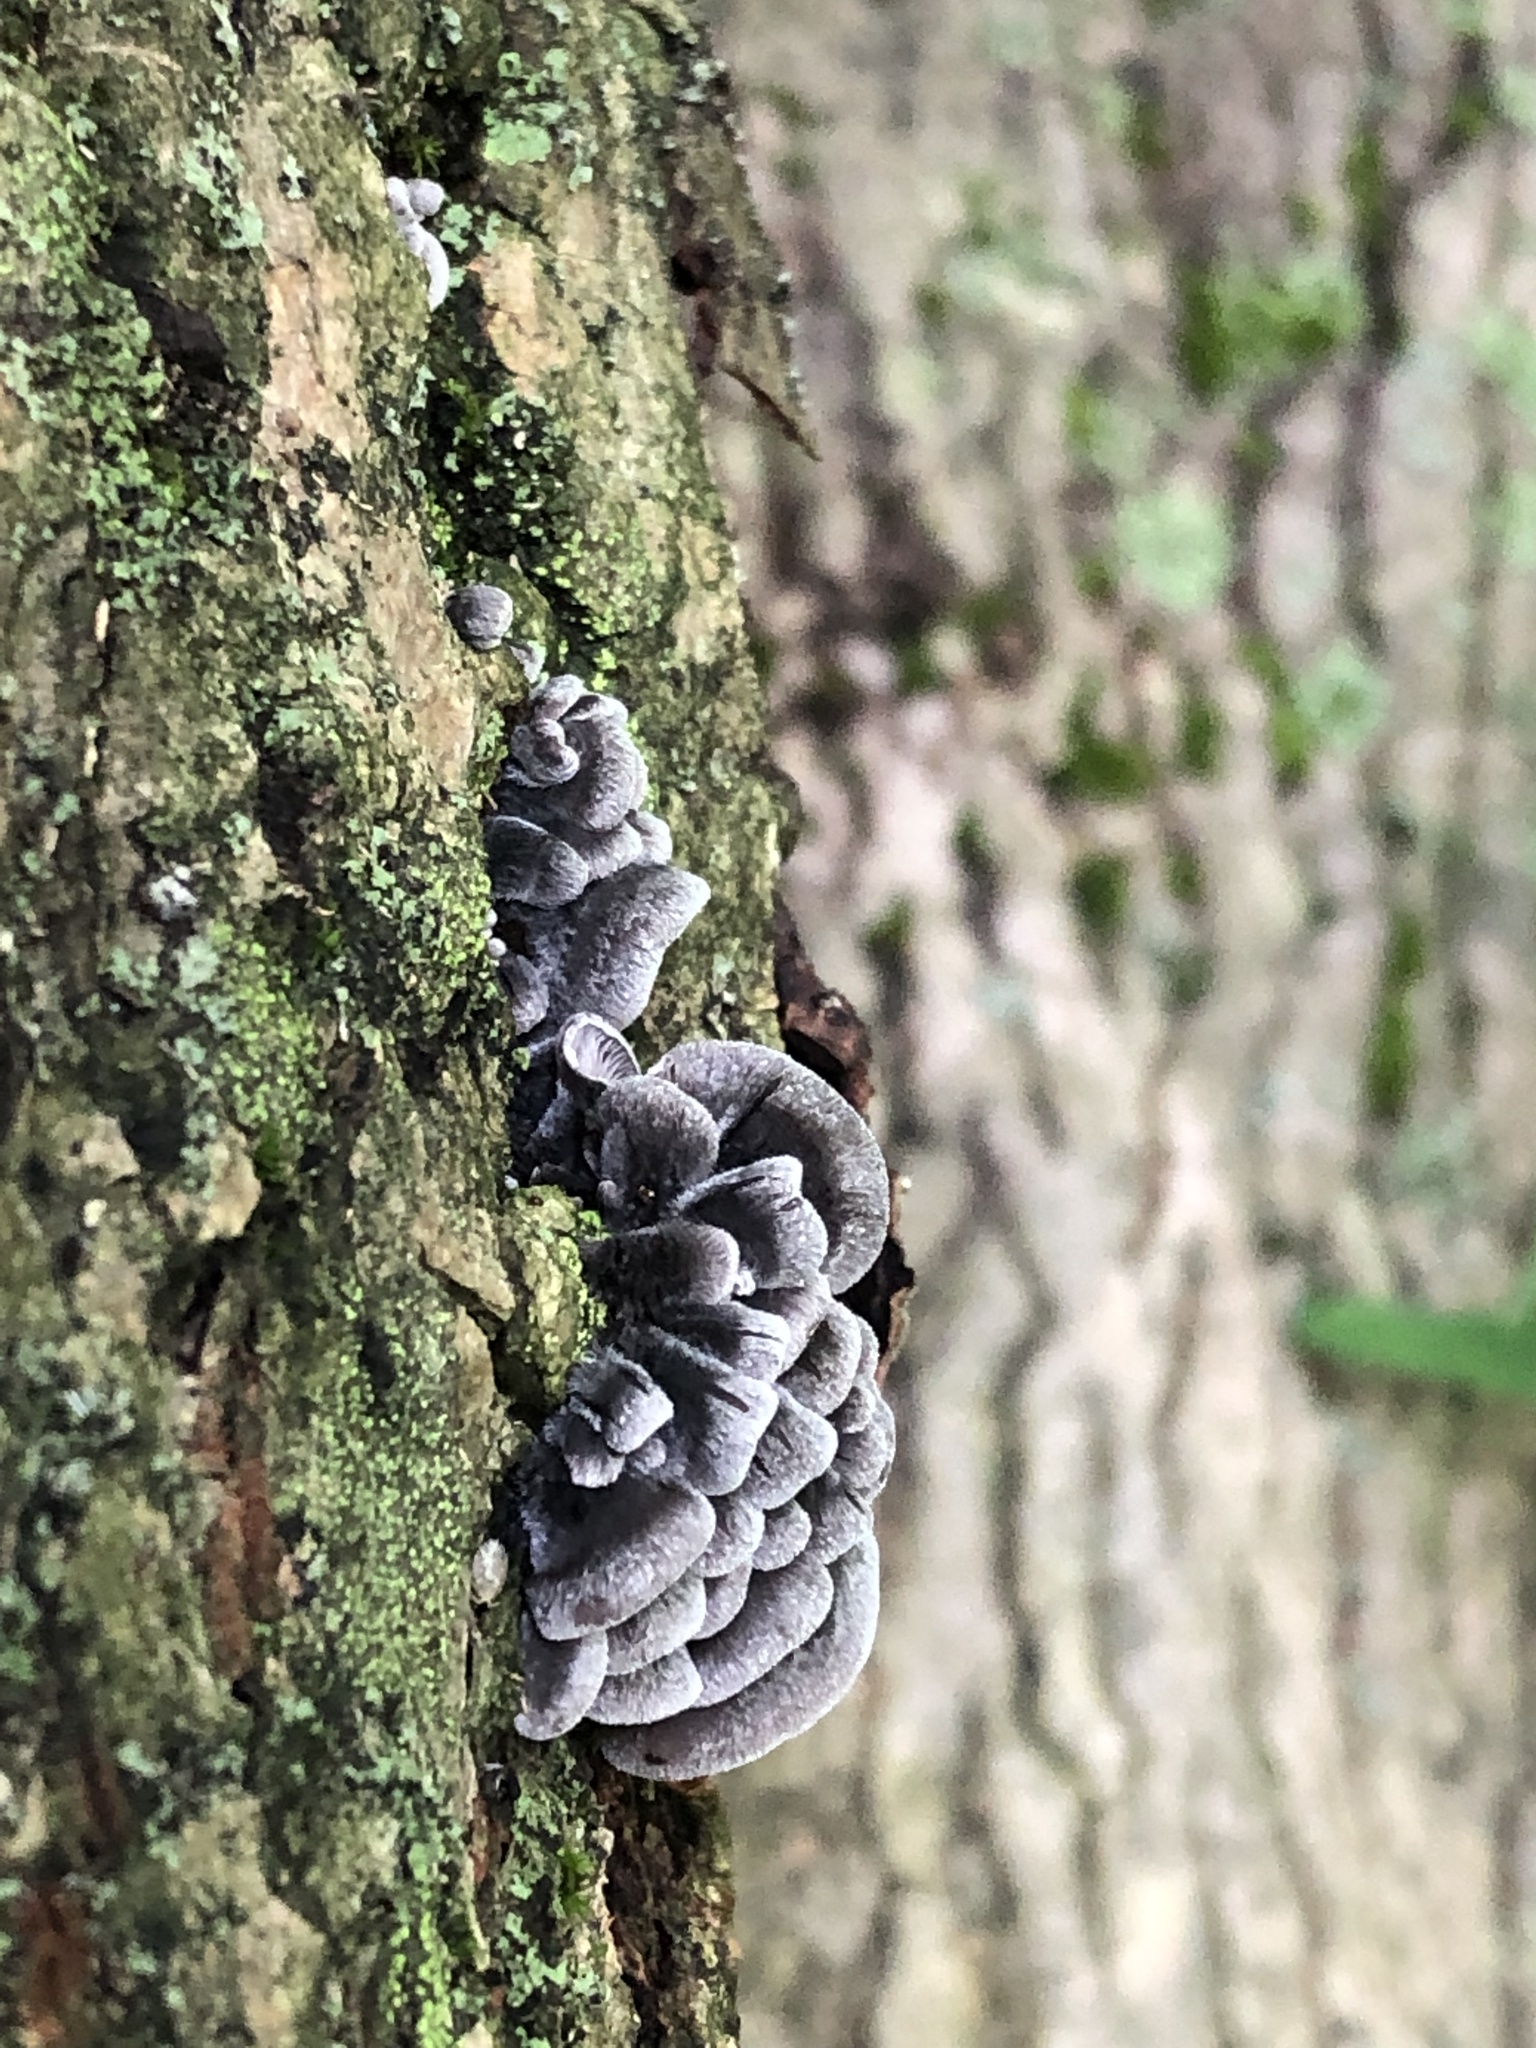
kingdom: Fungi
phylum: Basidiomycota
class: Agaricomycetes
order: Agaricales
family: Pleurotaceae
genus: Resupinatus
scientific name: Resupinatus applicatus
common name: Smoked oysterling
